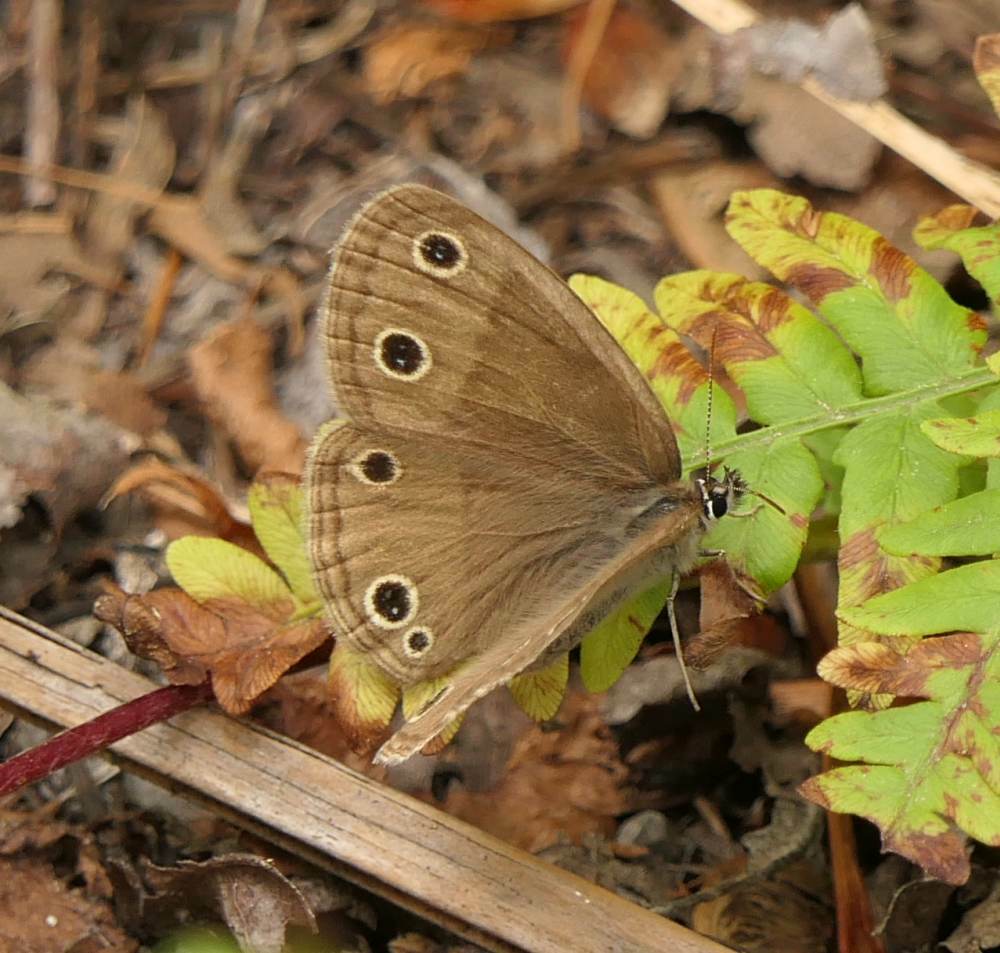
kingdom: Animalia
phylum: Arthropoda
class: Insecta
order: Lepidoptera
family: Nymphalidae
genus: Euptychia
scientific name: Euptychia cymela
